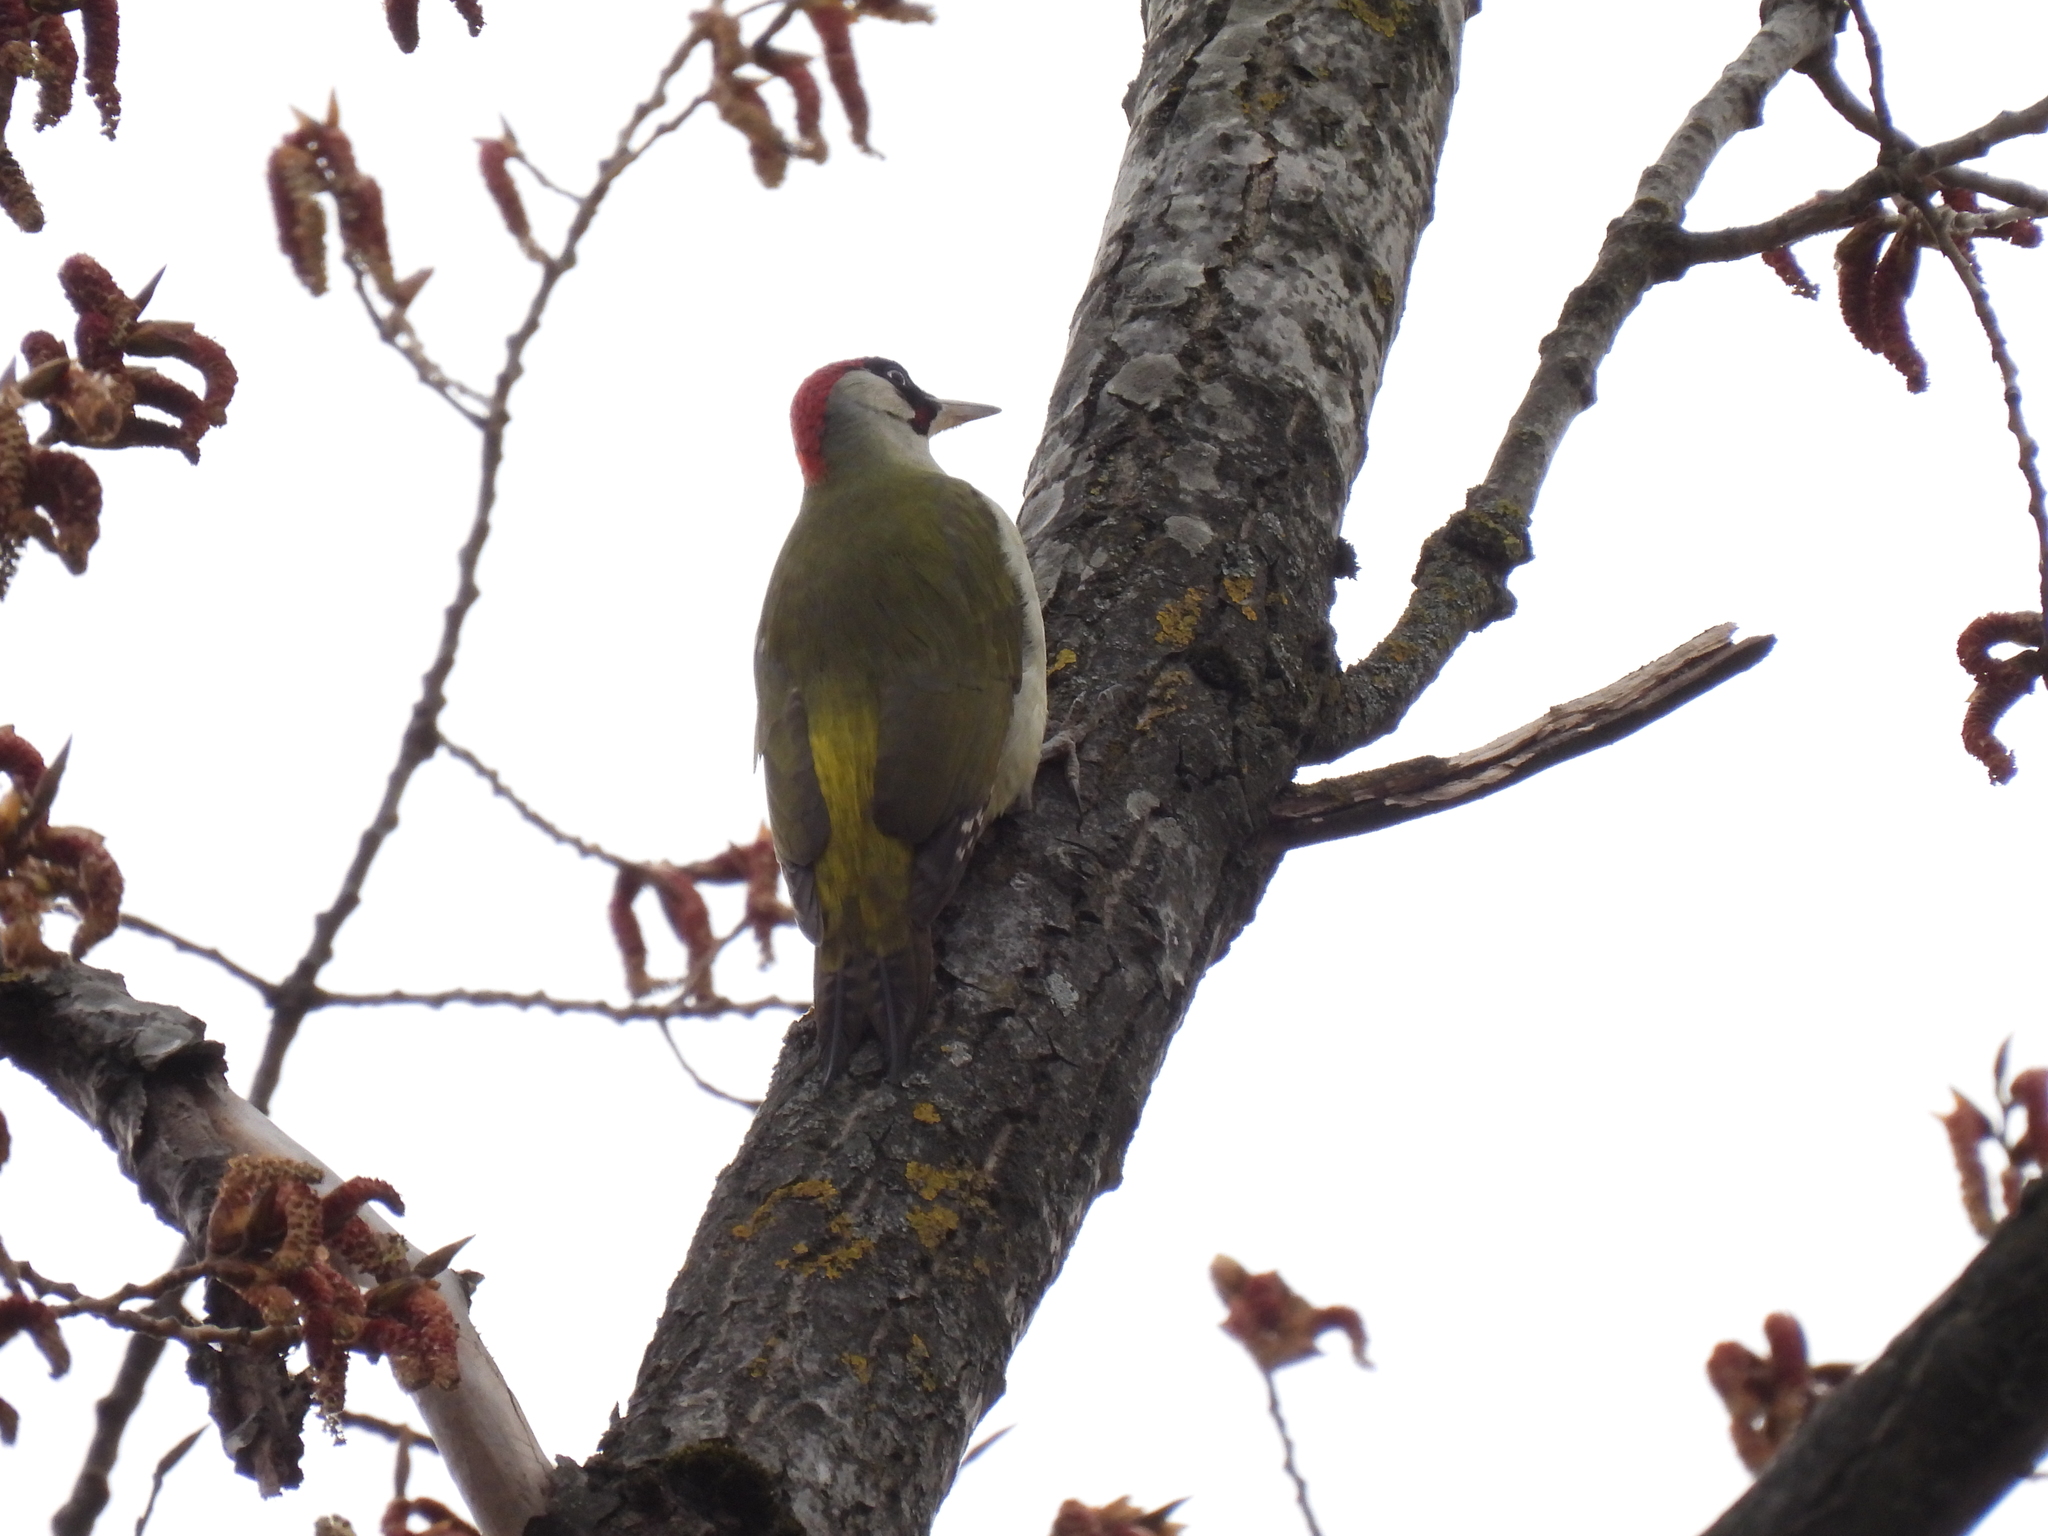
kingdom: Animalia
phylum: Chordata
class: Aves
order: Piciformes
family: Picidae
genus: Picus
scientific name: Picus viridis
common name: European green woodpecker
